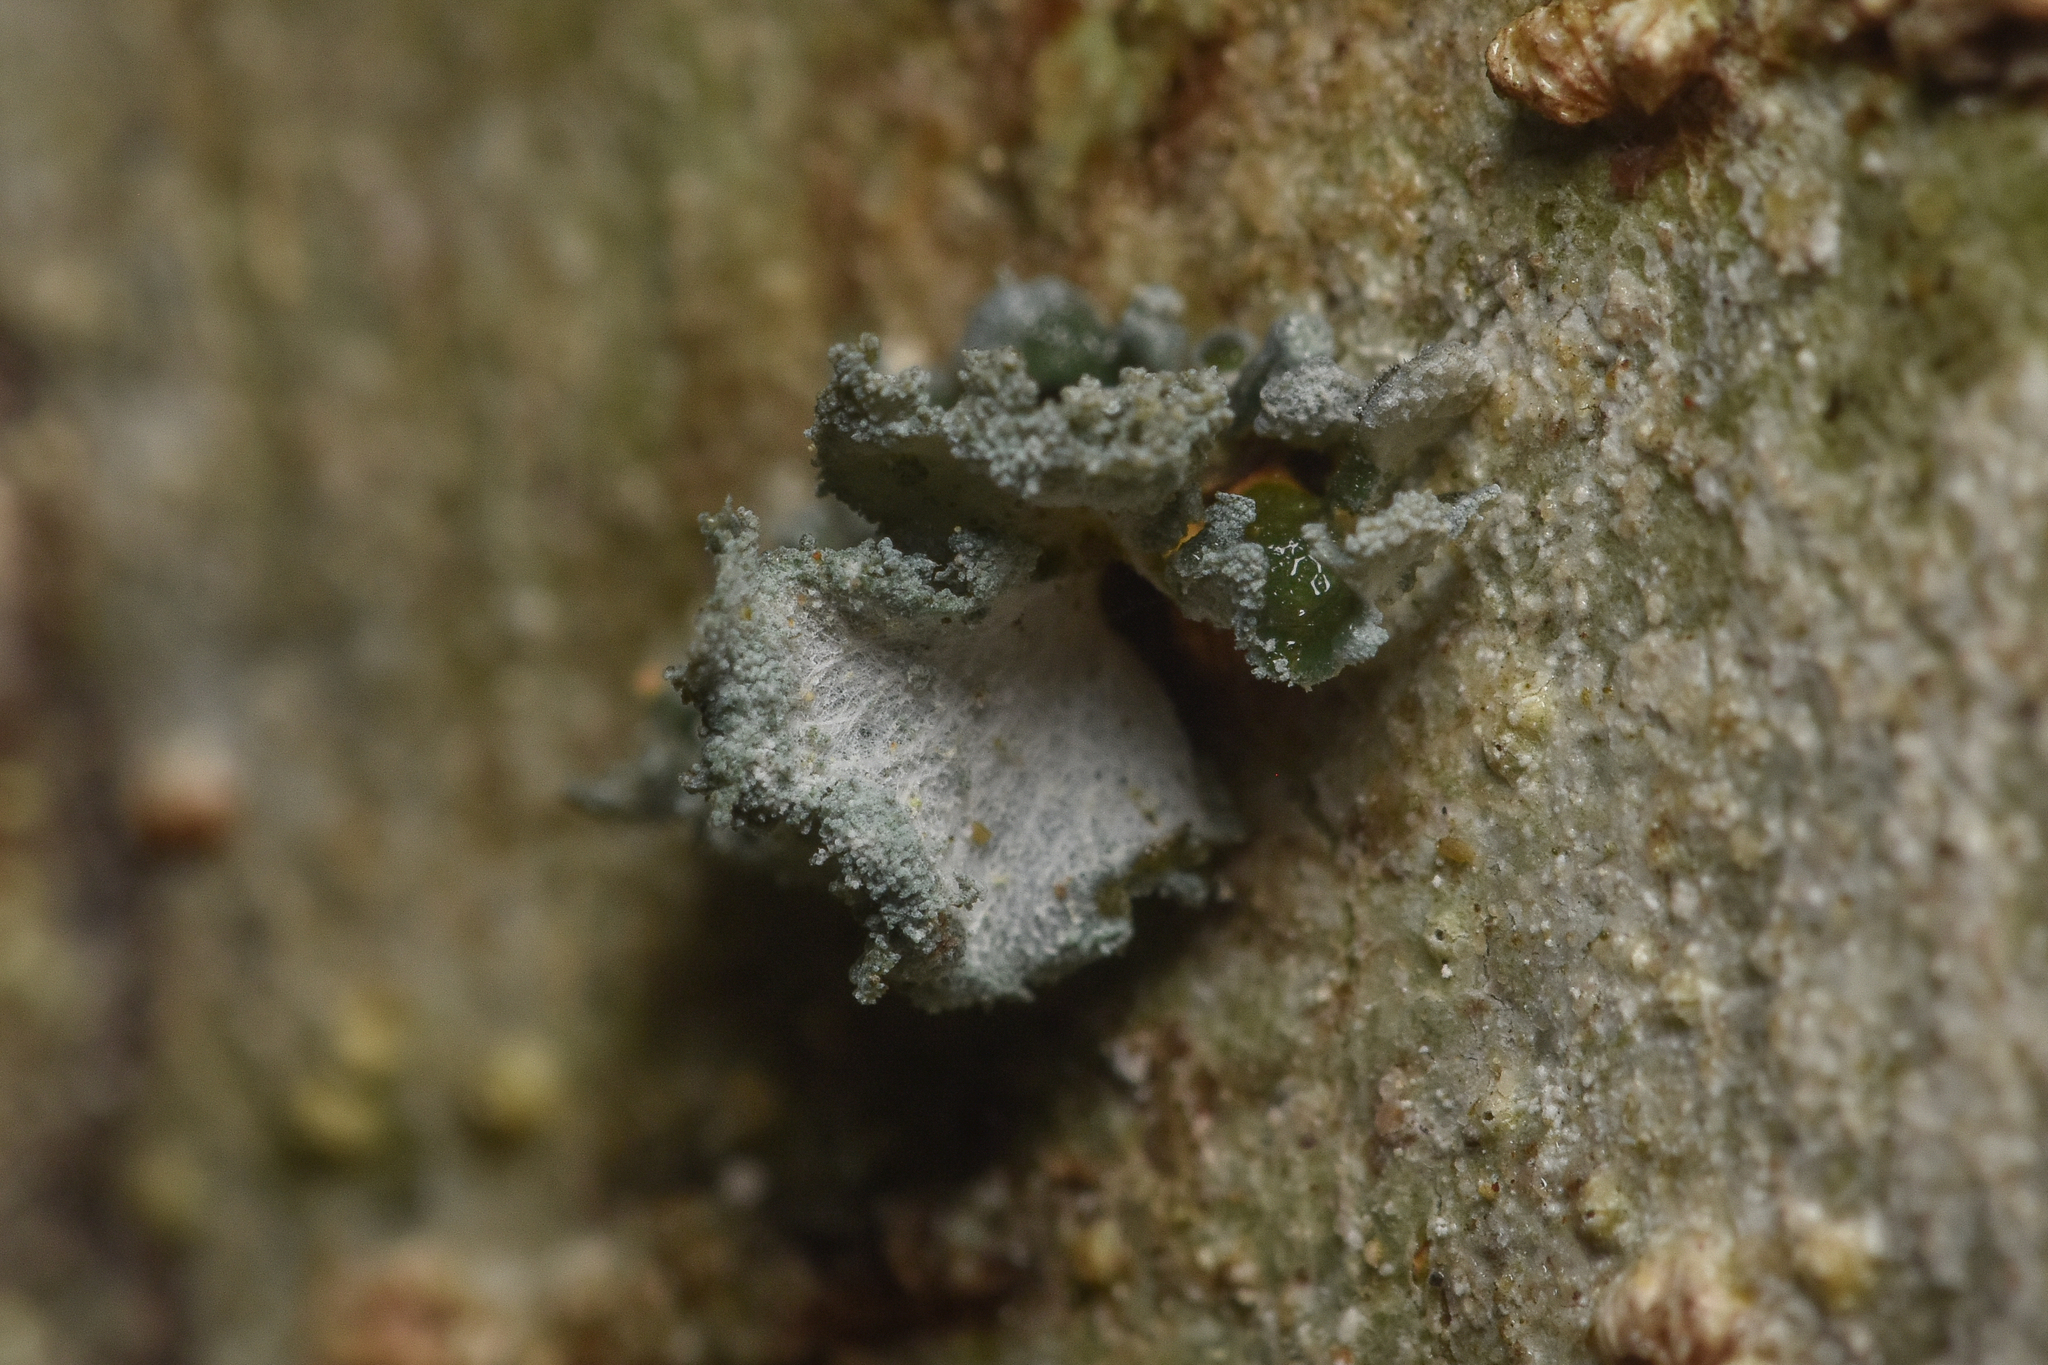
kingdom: Fungi
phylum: Ascomycota
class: Lecanoromycetes
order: Peltigerales
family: Pannariaceae
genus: Erioderma
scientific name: Erioderma sorediatum
